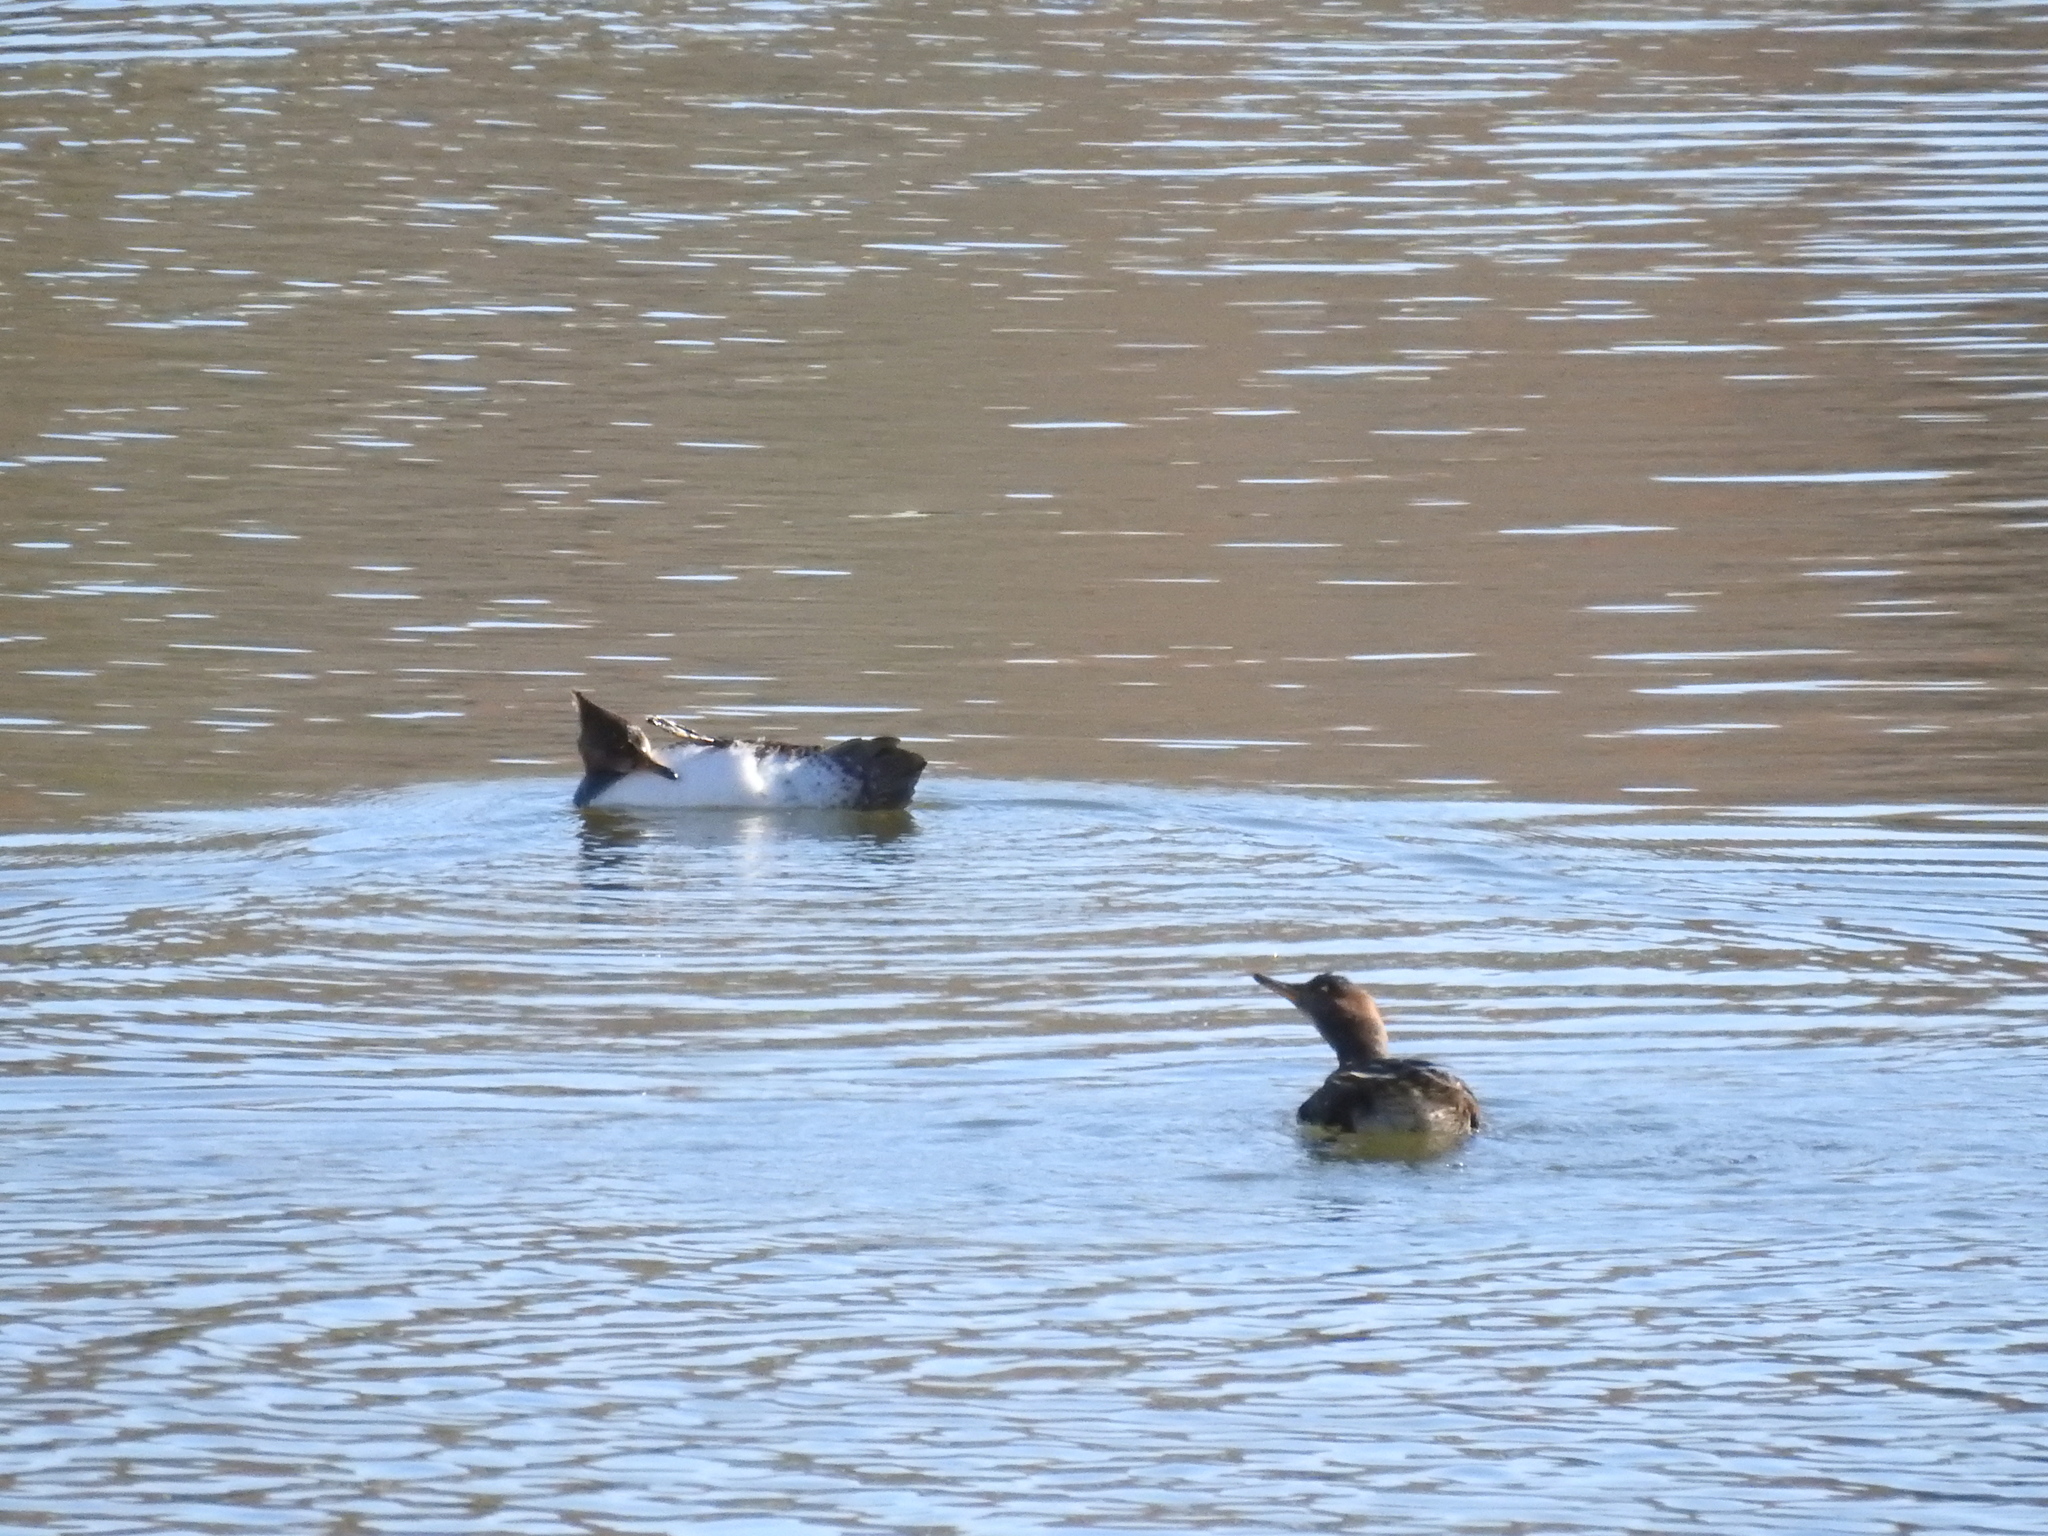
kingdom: Animalia
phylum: Chordata
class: Aves
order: Anseriformes
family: Anatidae
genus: Lophodytes
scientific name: Lophodytes cucullatus
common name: Hooded merganser
